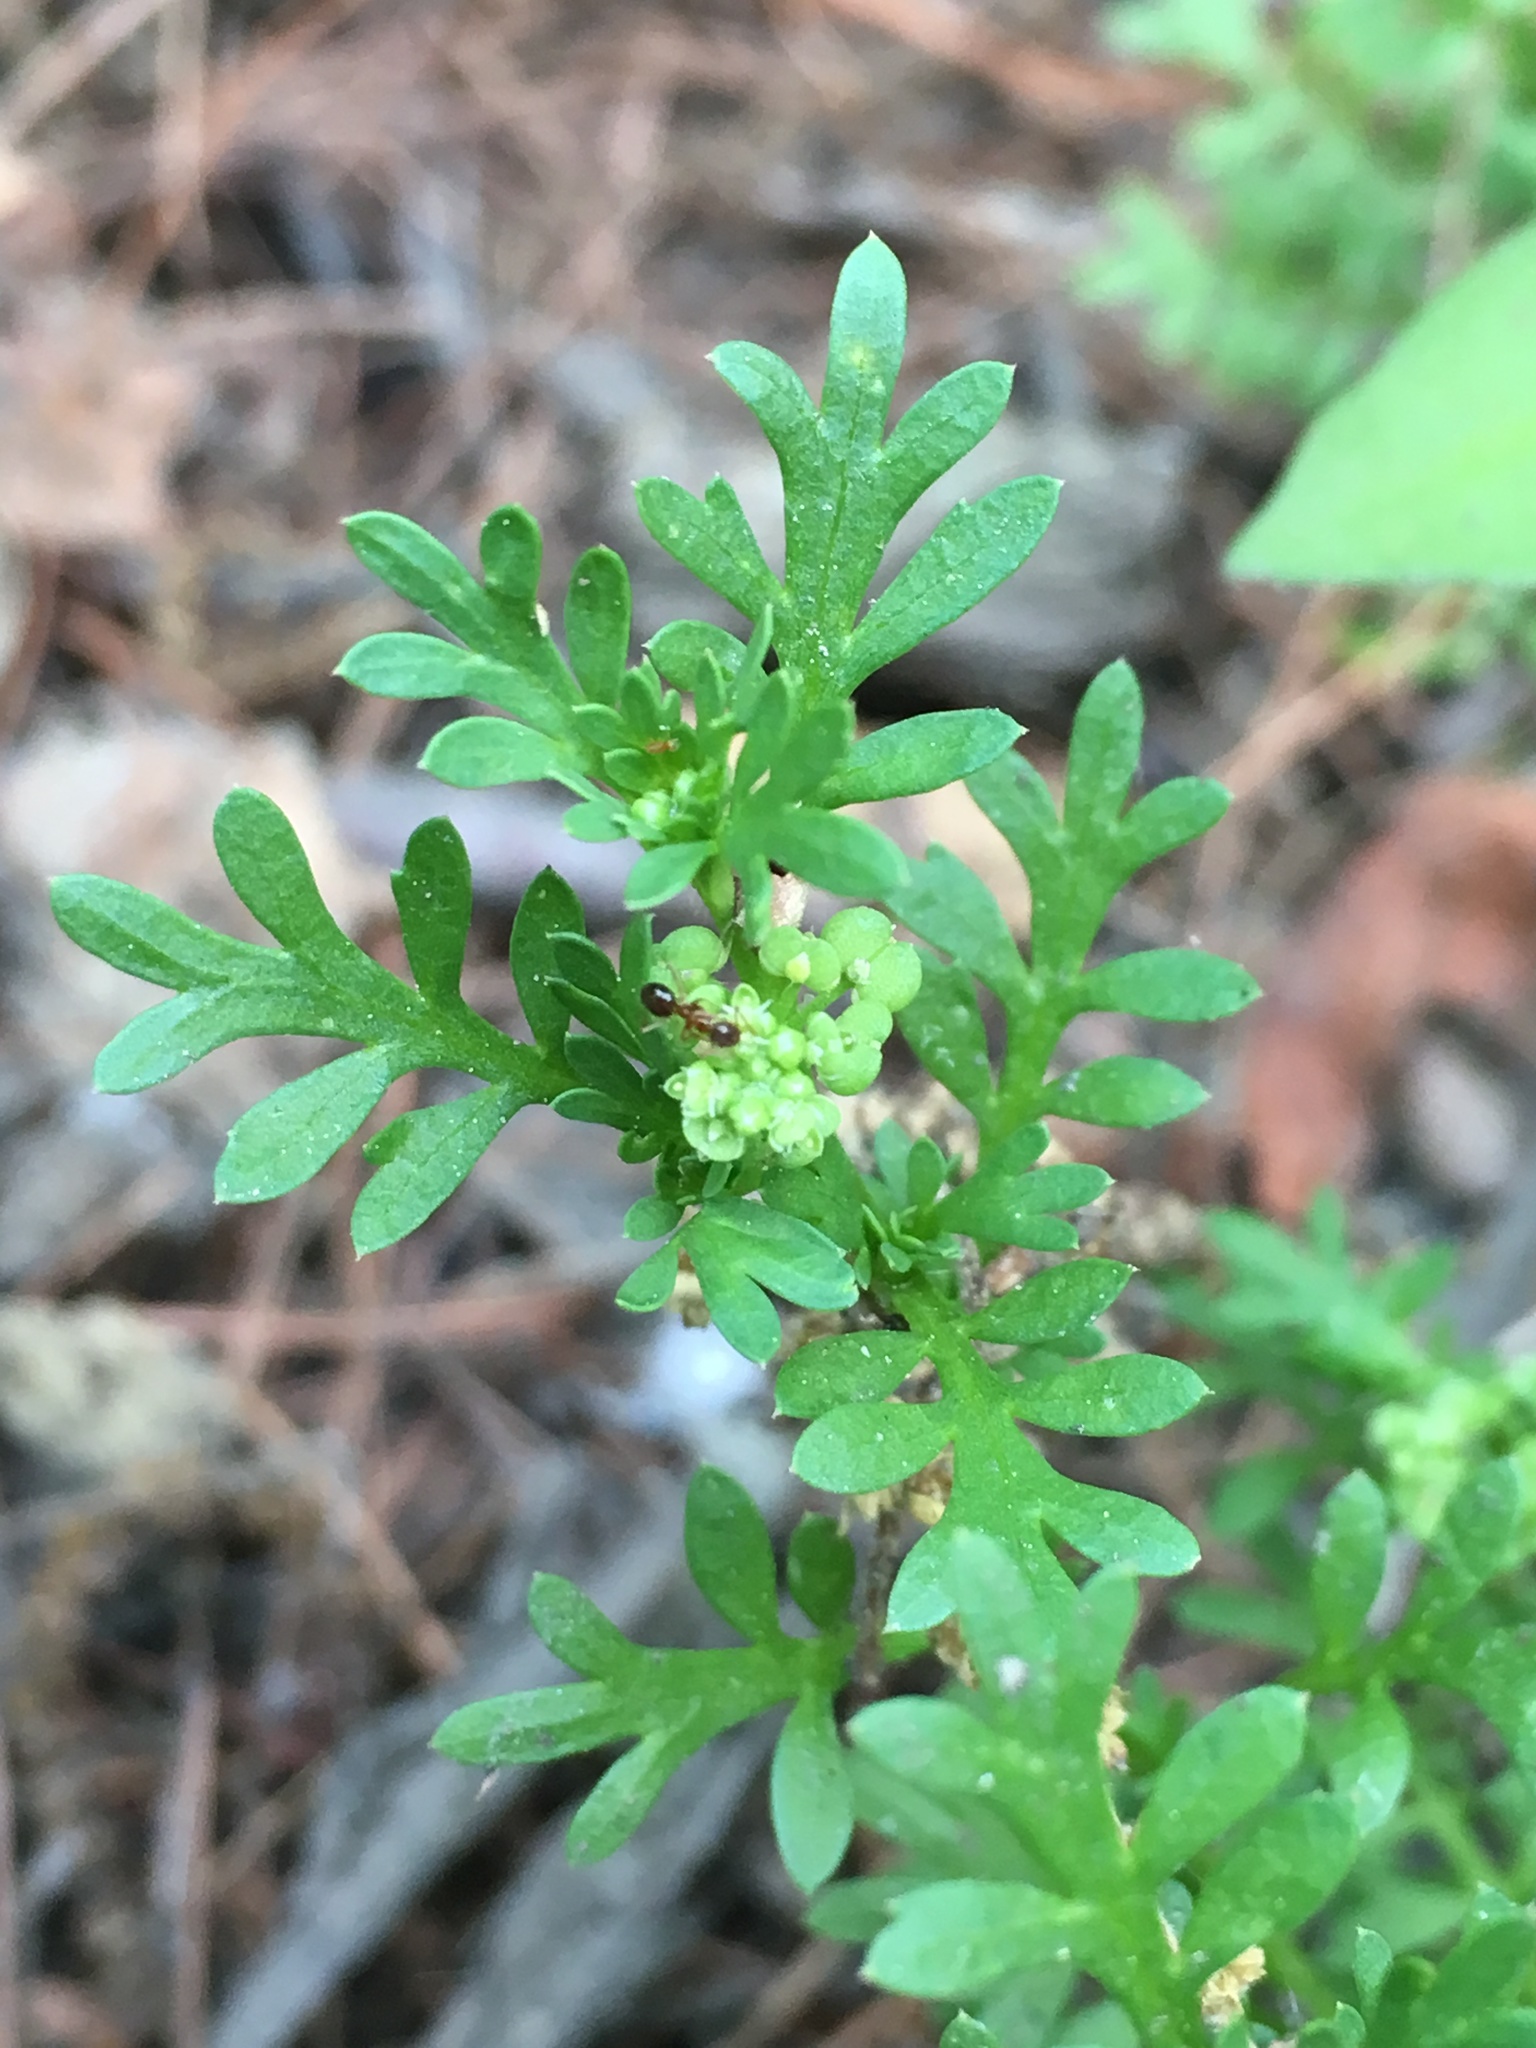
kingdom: Plantae
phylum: Tracheophyta
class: Magnoliopsida
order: Brassicales
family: Brassicaceae
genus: Lepidium
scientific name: Lepidium didymum
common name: Lesser swinecress
